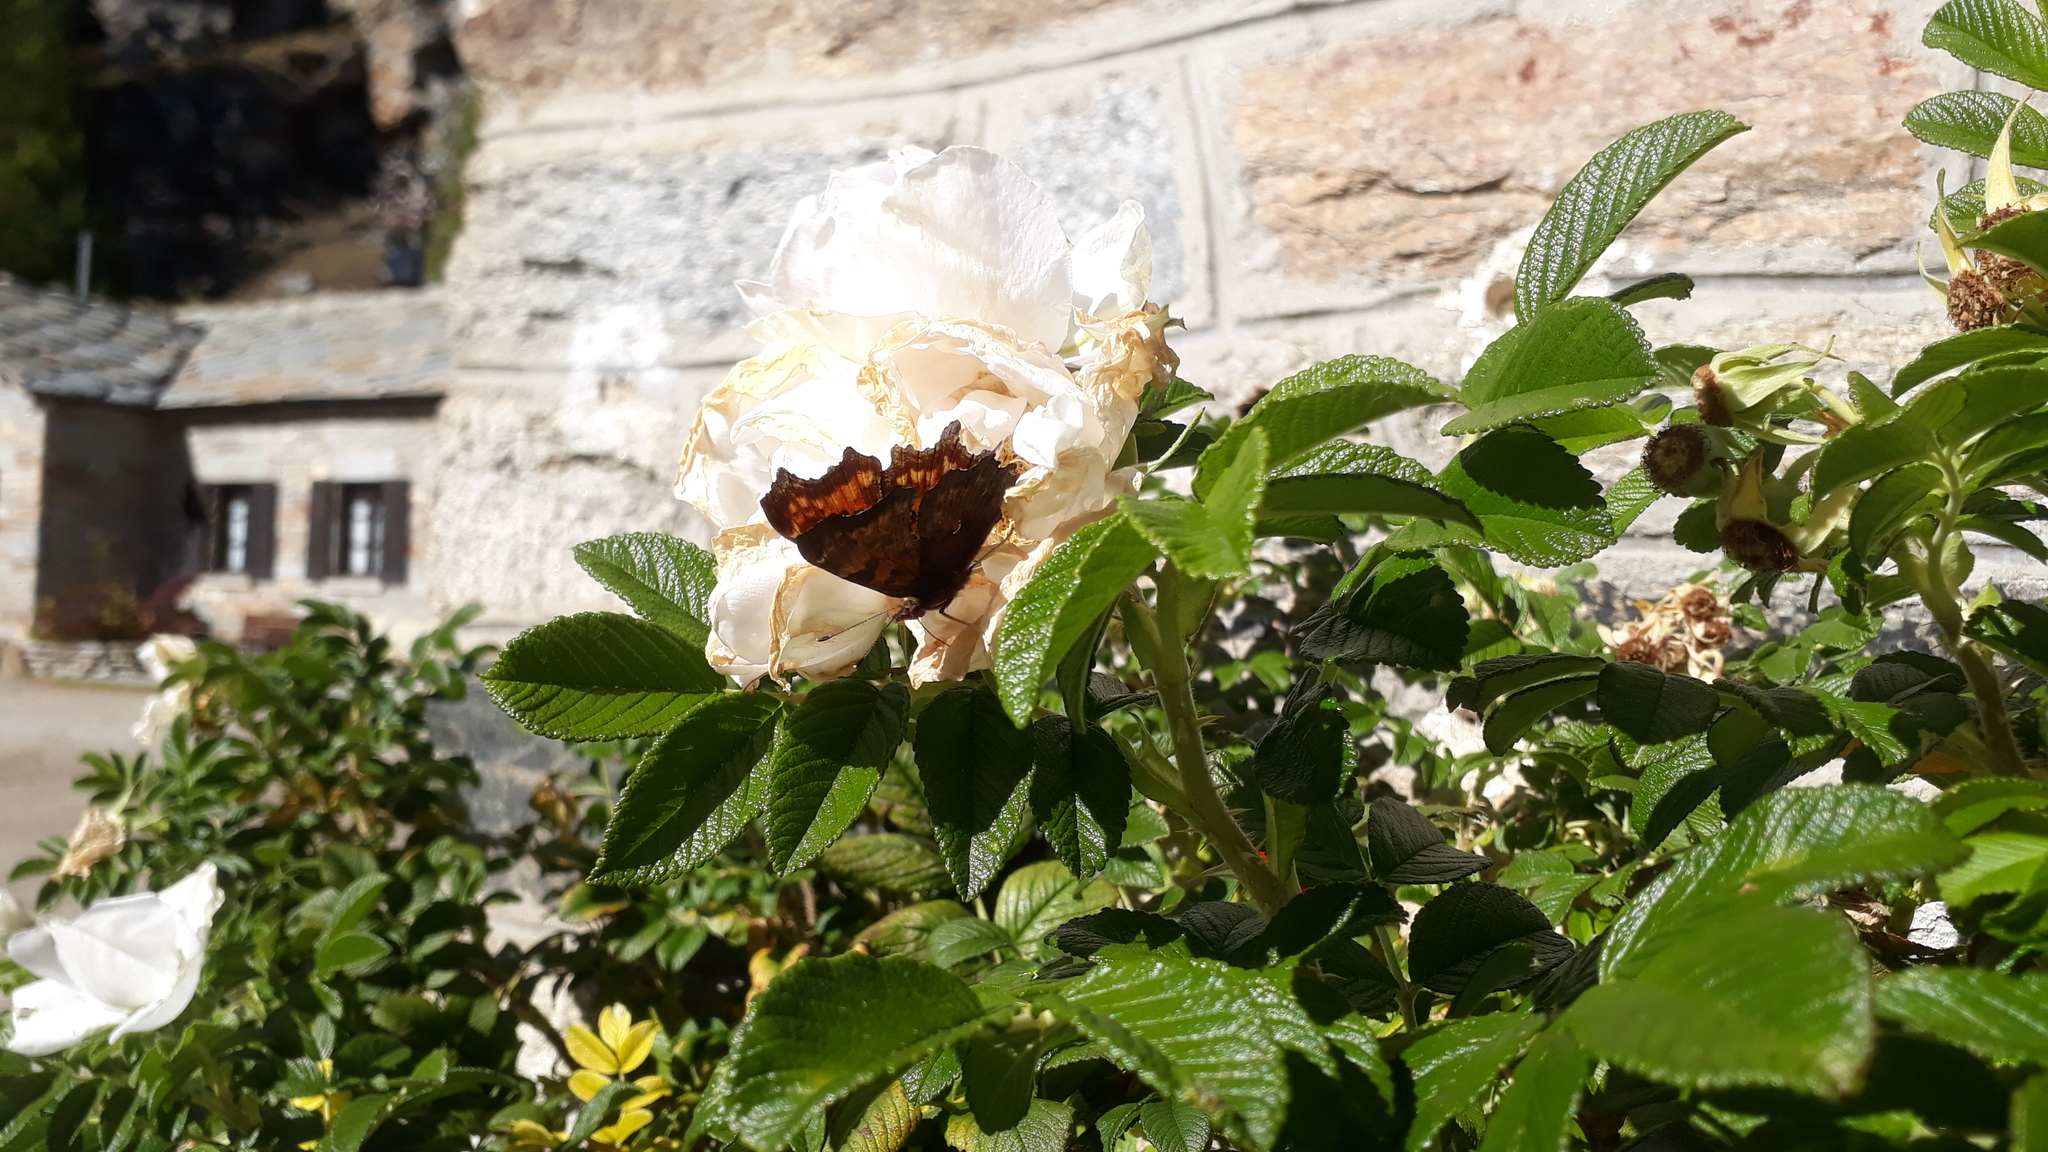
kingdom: Animalia
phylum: Arthropoda
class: Insecta
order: Lepidoptera
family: Nymphalidae
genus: Polygonia
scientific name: Polygonia c-album
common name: Comma
